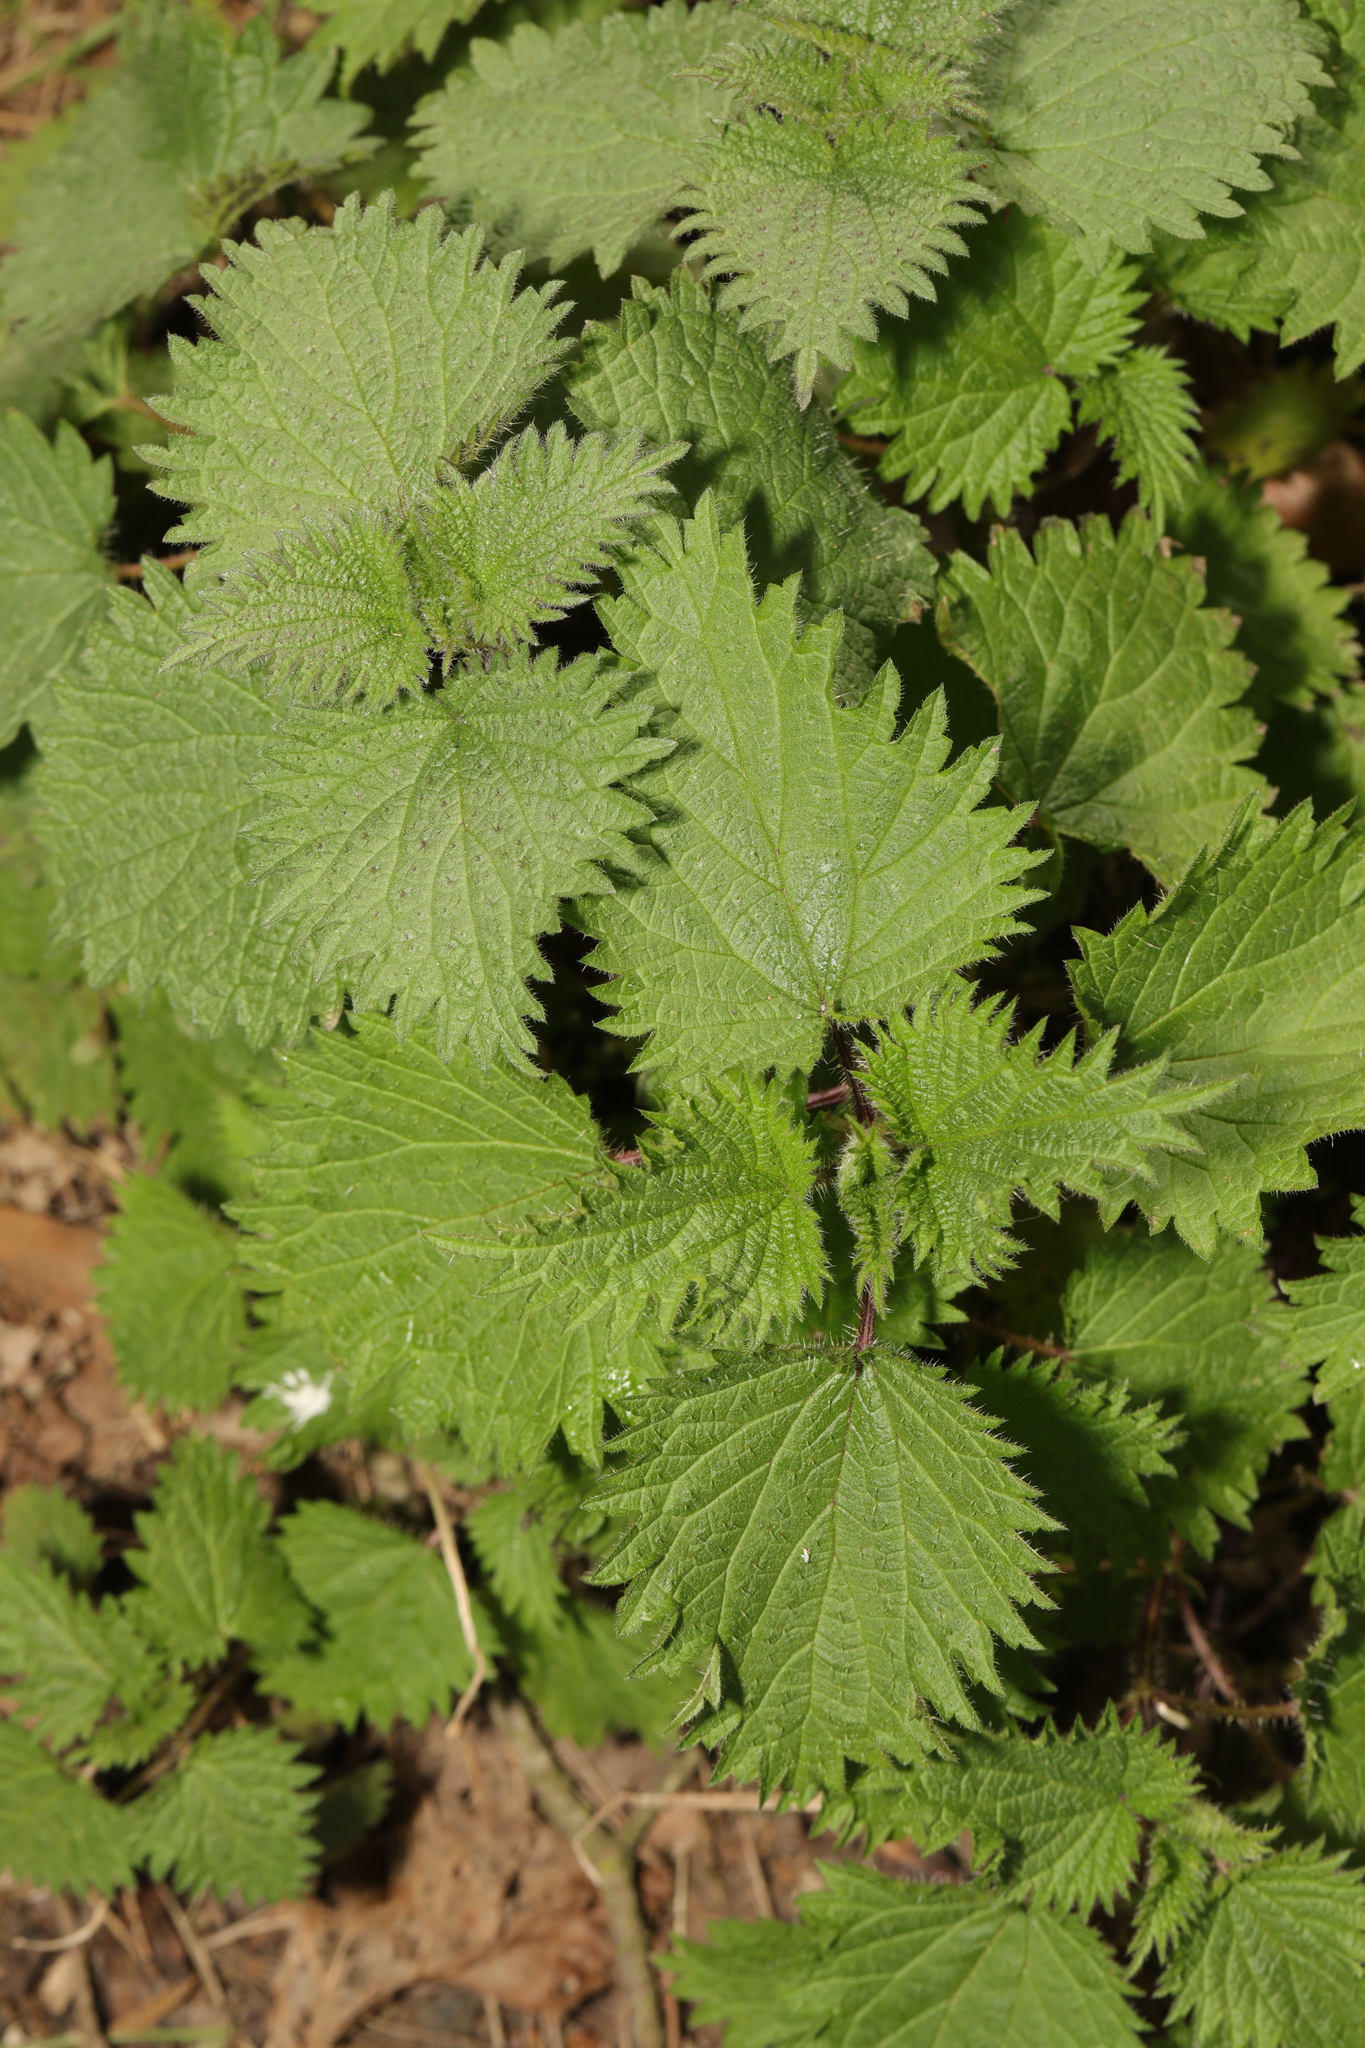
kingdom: Plantae
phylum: Tracheophyta
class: Magnoliopsida
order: Rosales
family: Urticaceae
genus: Urtica
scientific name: Urtica dioica
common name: Common nettle
